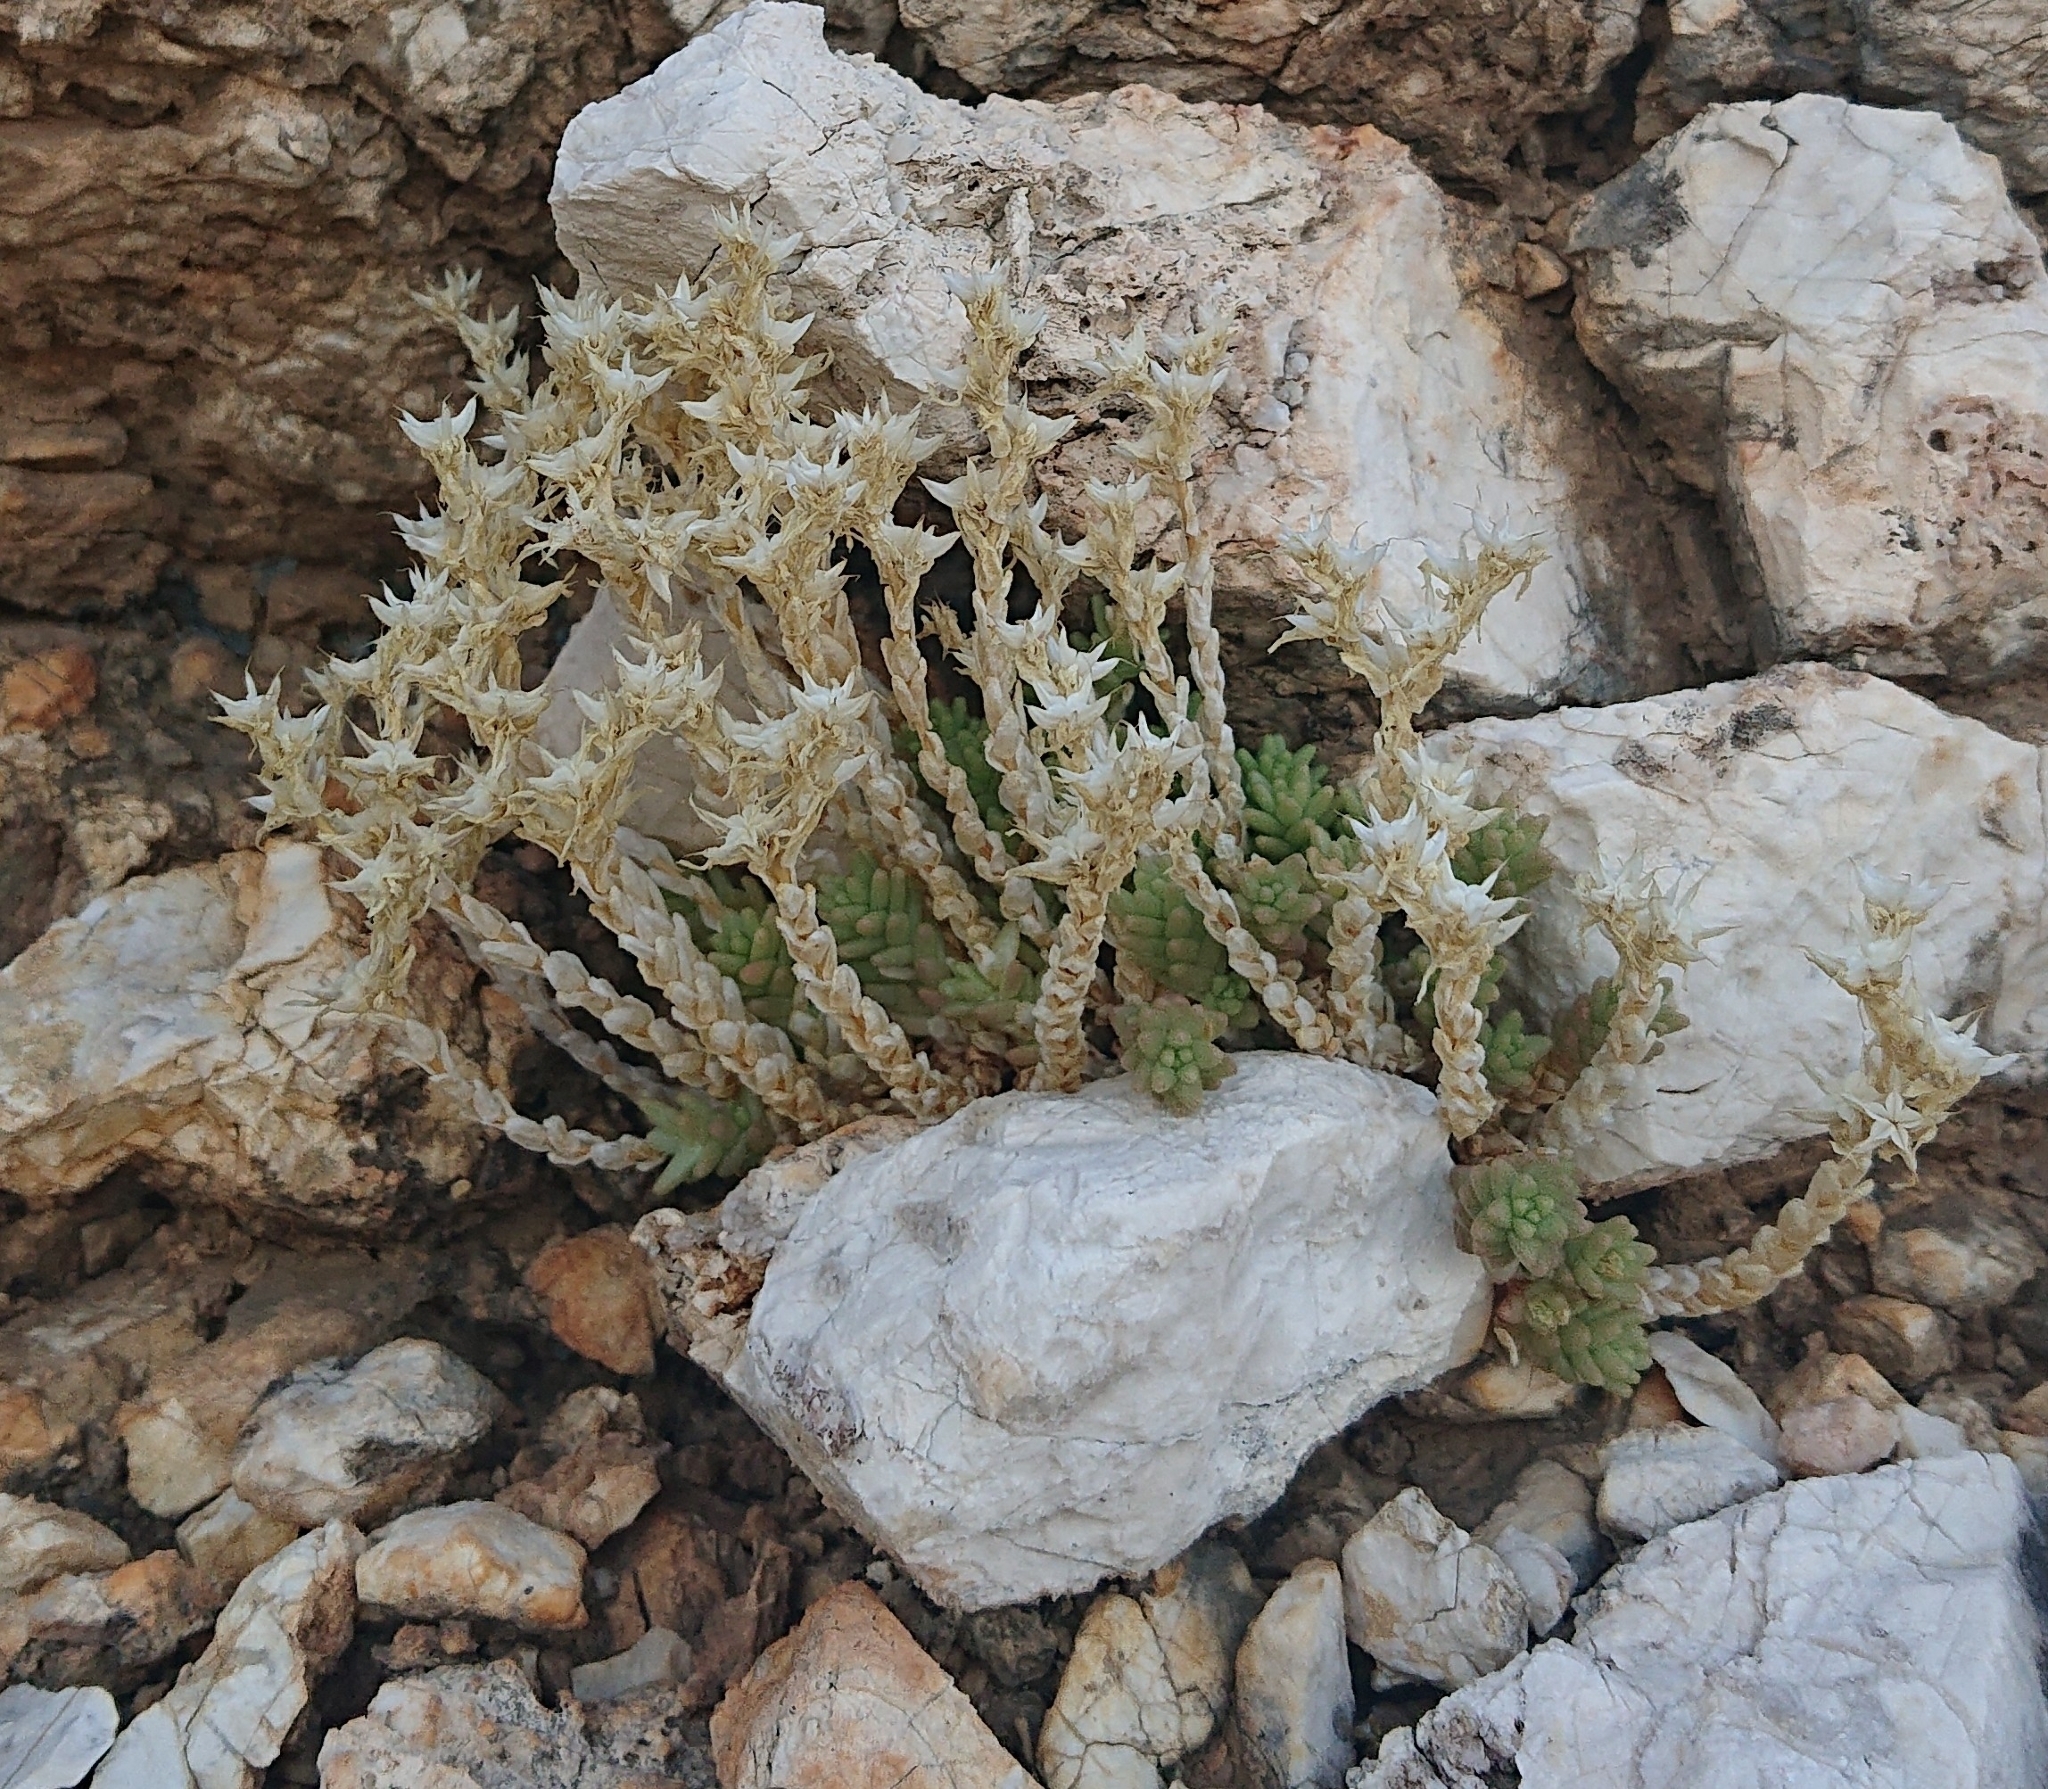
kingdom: Plantae
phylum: Tracheophyta
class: Magnoliopsida
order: Saxifragales
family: Crassulaceae
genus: Sedum
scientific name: Sedum acre
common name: Biting stonecrop
